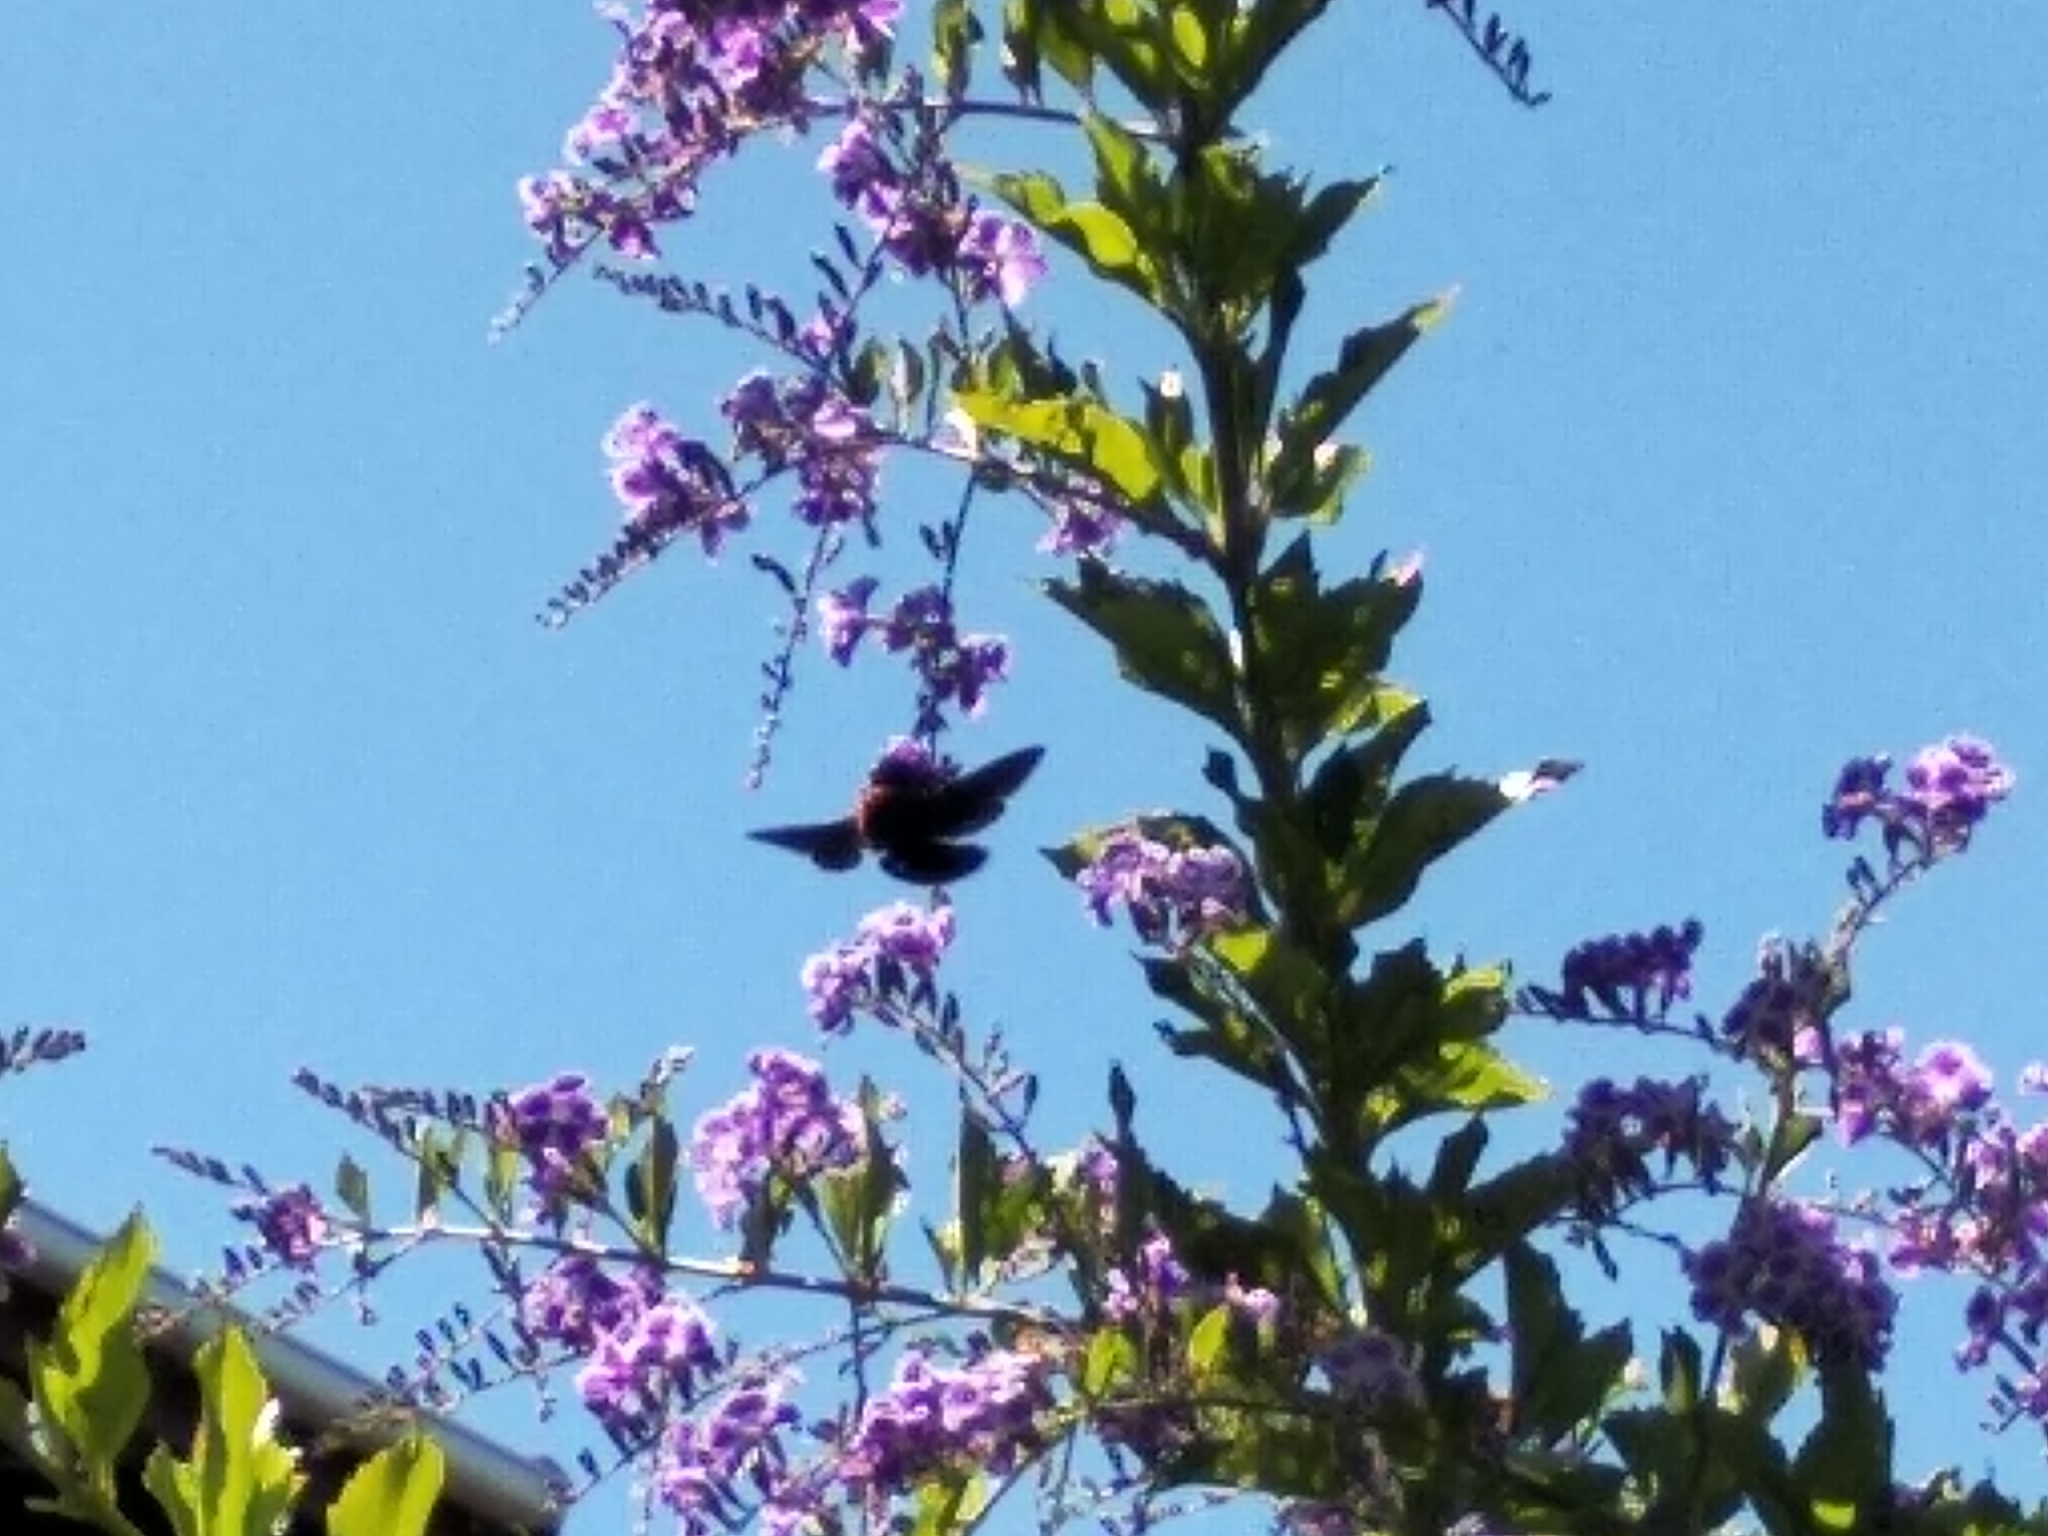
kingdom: Animalia
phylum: Arthropoda
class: Insecta
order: Hymenoptera
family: Apidae
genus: Xylocopa
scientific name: Xylocopa flavorufa
